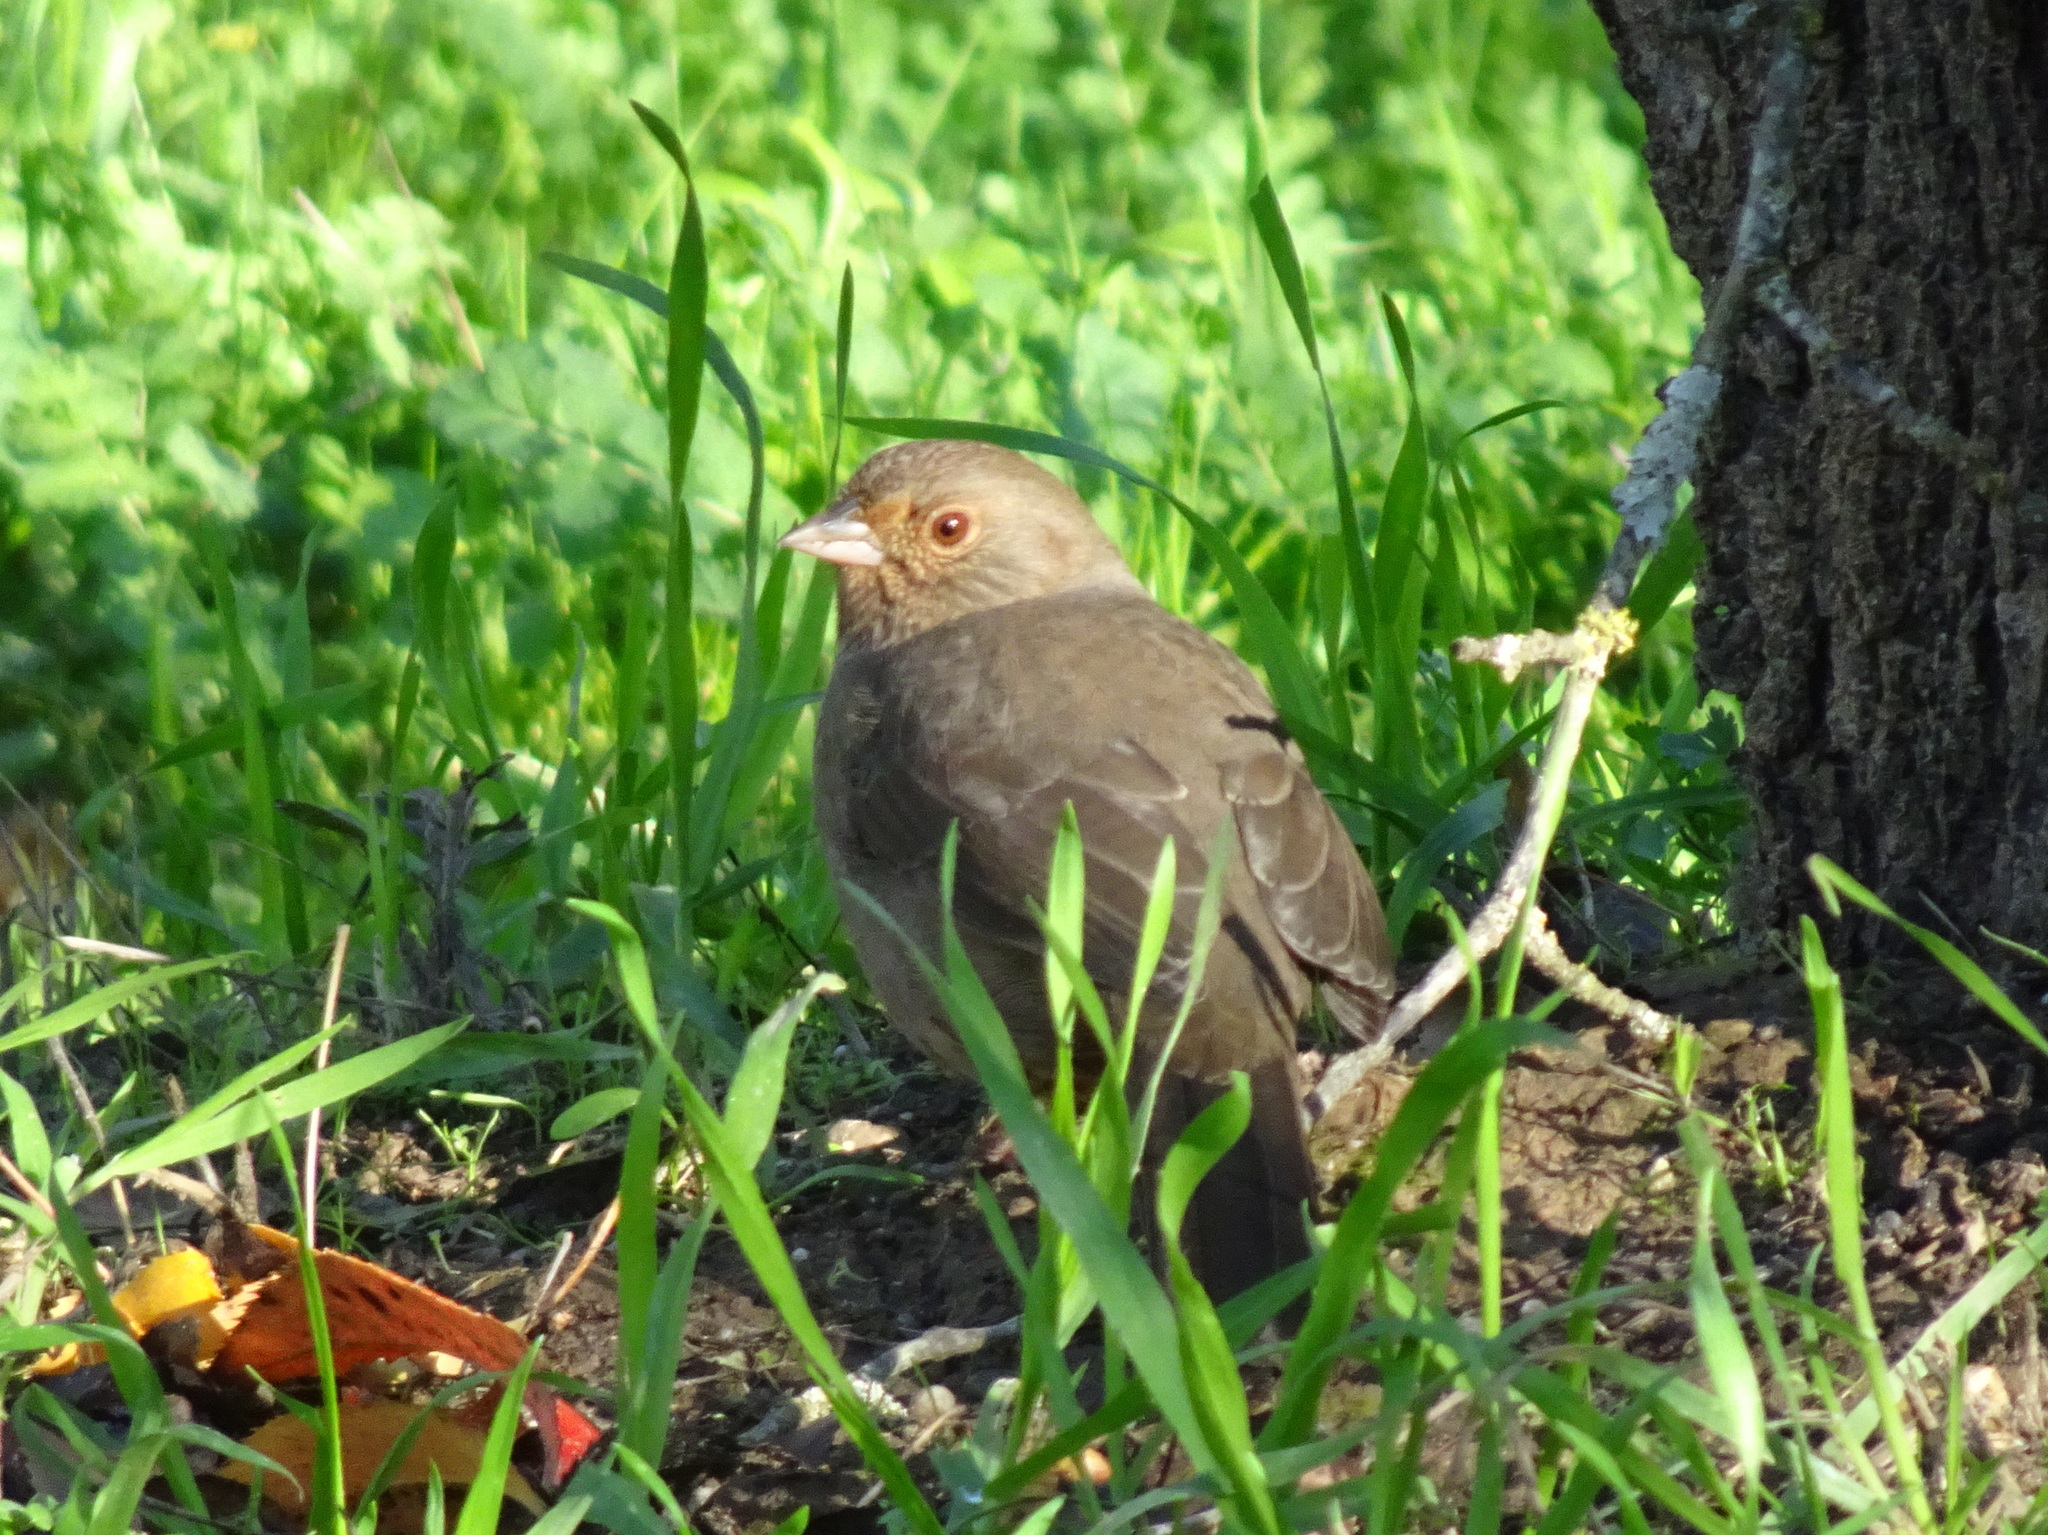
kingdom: Animalia
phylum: Chordata
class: Aves
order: Passeriformes
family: Passerellidae
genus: Melozone
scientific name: Melozone crissalis
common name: California towhee
